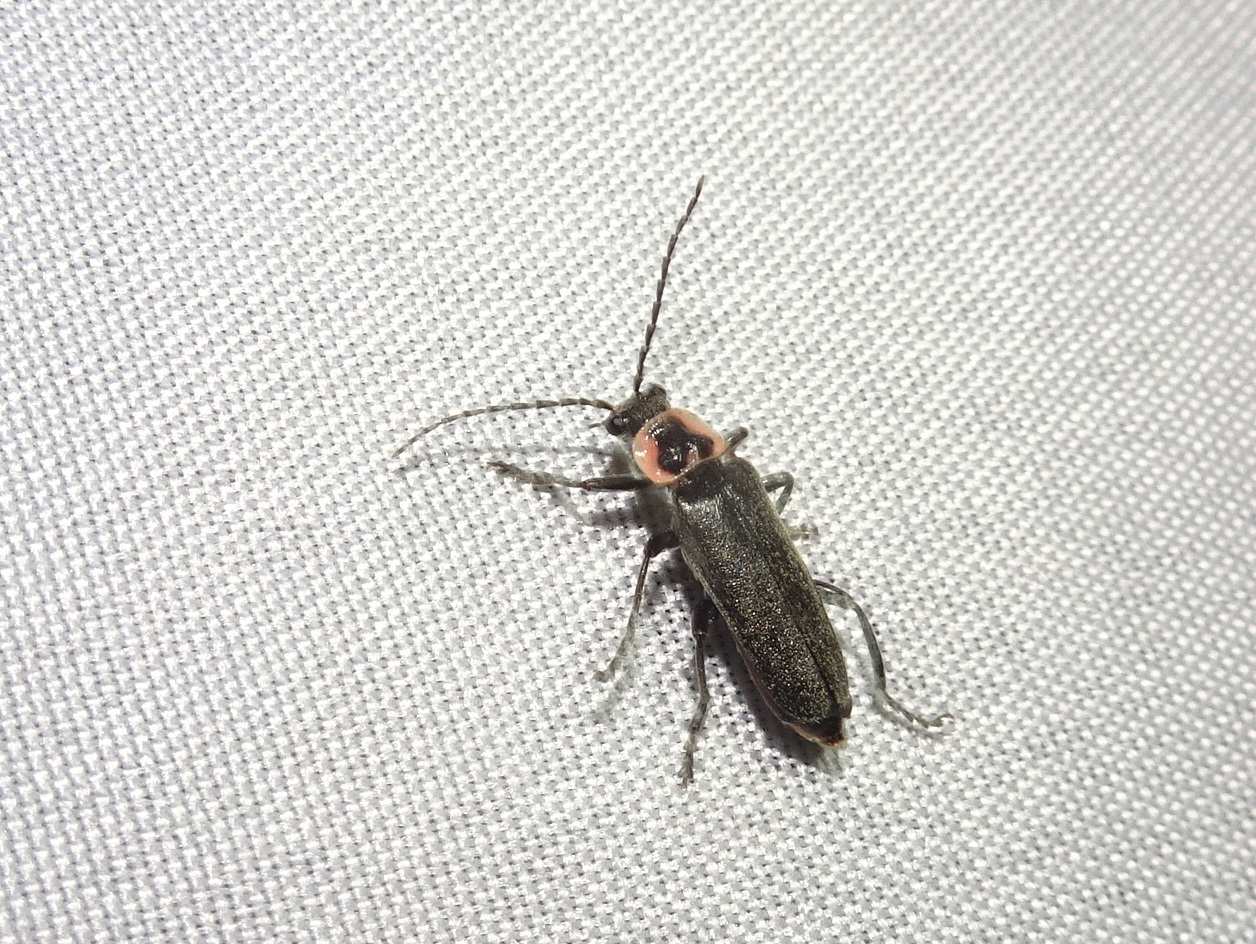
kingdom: Animalia
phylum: Arthropoda
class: Insecta
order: Coleoptera
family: Cantharidae
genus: Atalantycha
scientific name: Atalantycha neglecta
